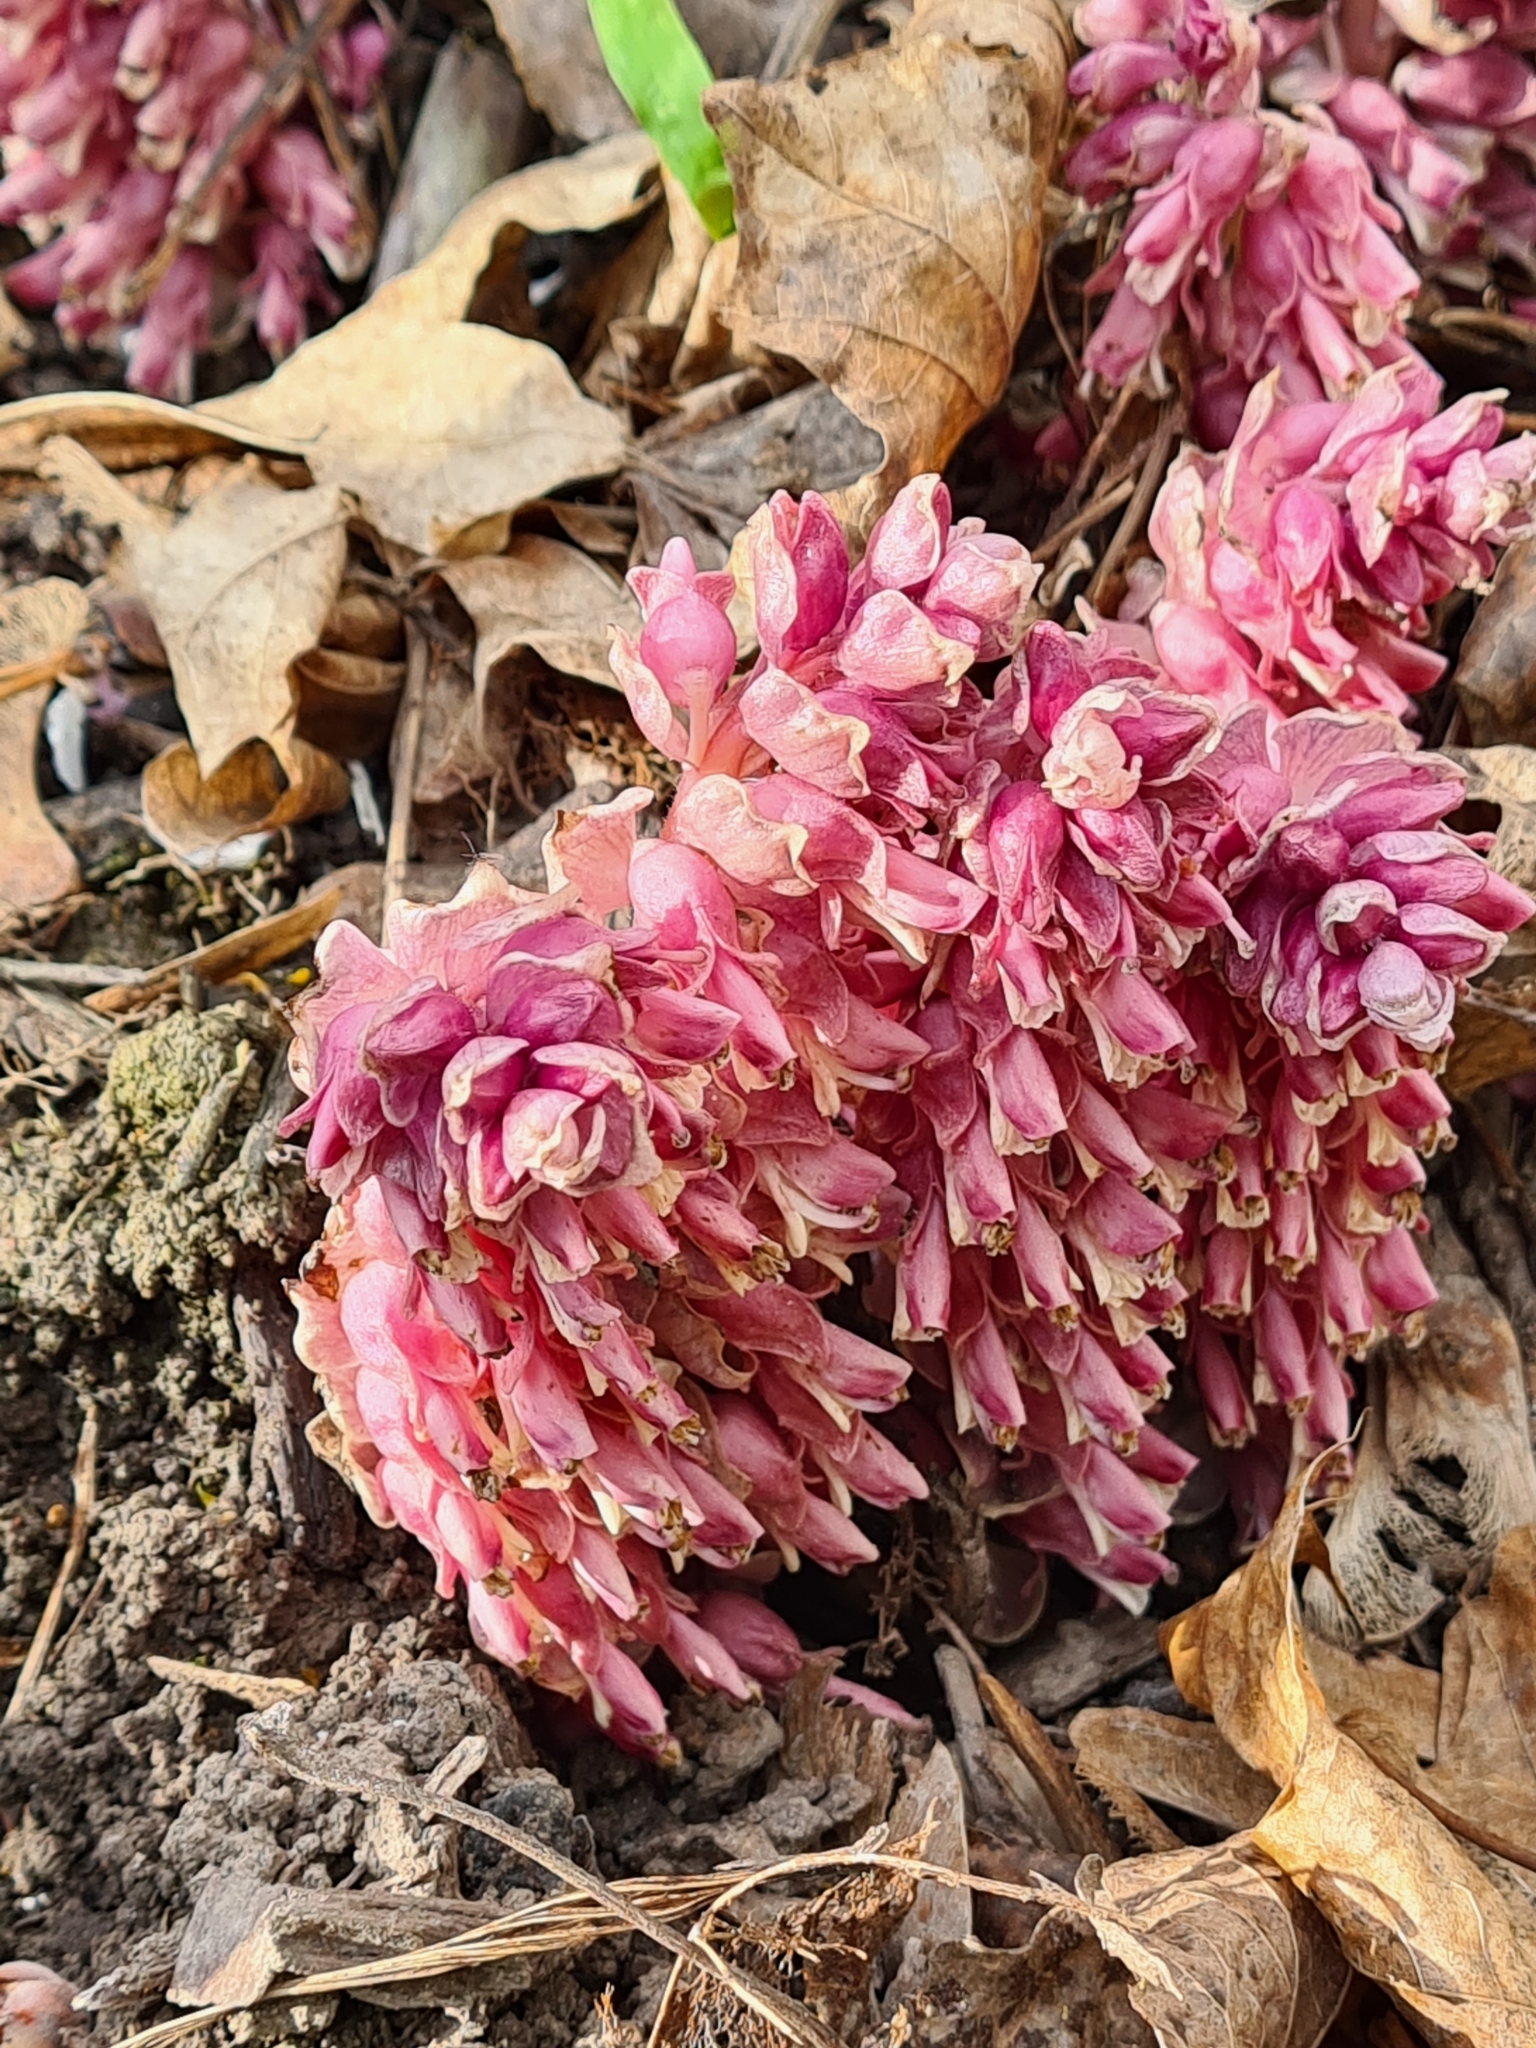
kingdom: Plantae
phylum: Tracheophyta
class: Magnoliopsida
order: Lamiales
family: Orobanchaceae
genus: Lathraea
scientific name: Lathraea squamaria
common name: Toothwort
